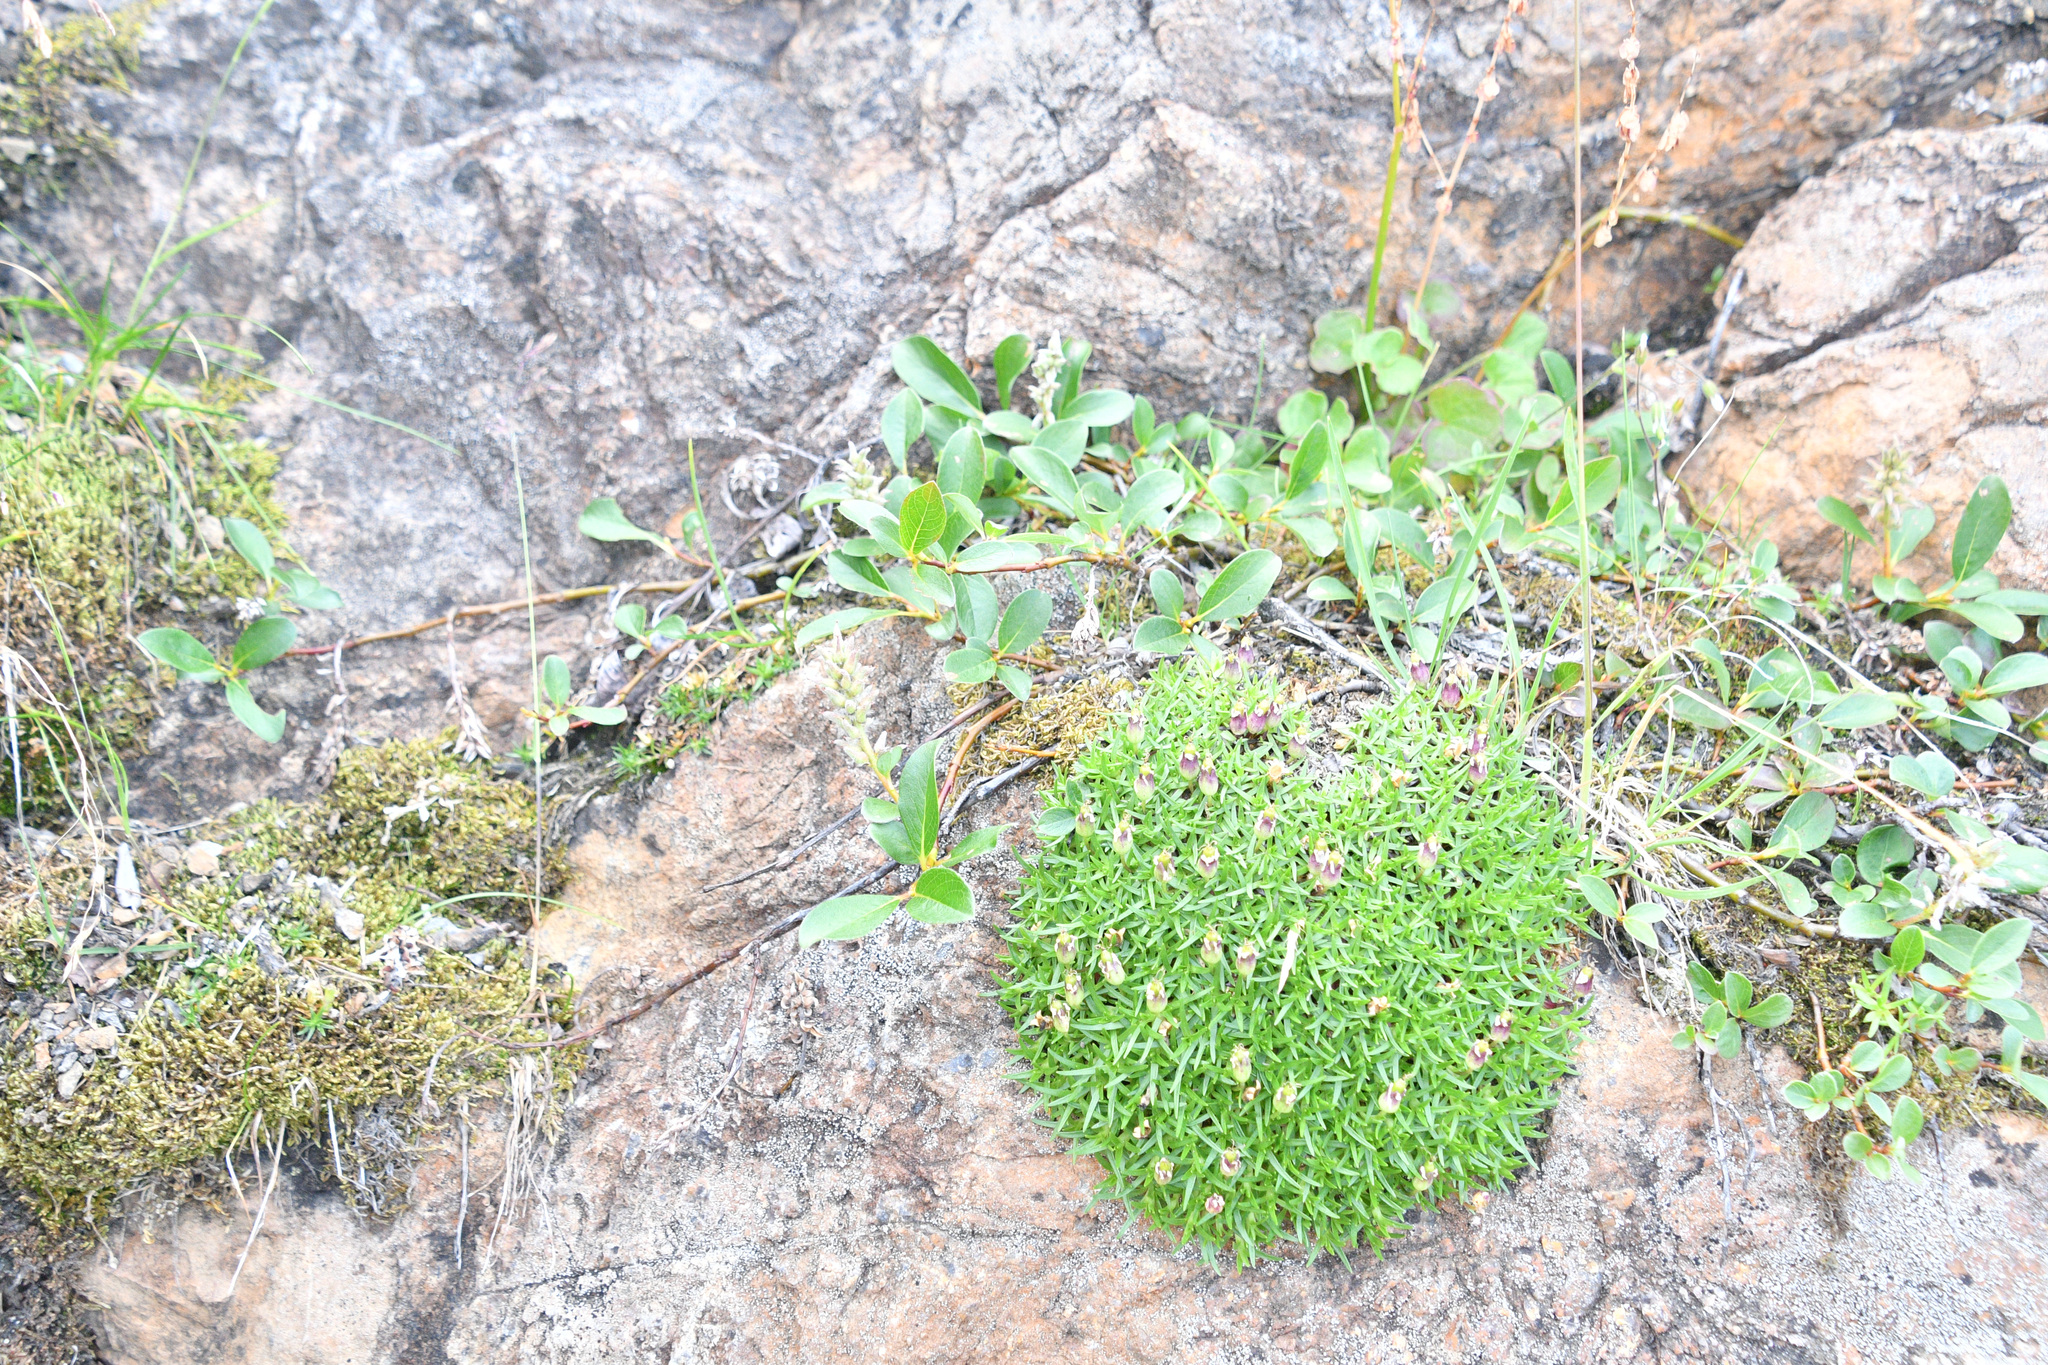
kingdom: Plantae
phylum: Tracheophyta
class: Magnoliopsida
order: Caryophyllales
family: Caryophyllaceae
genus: Silene
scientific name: Silene acaulis
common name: Moss campion
